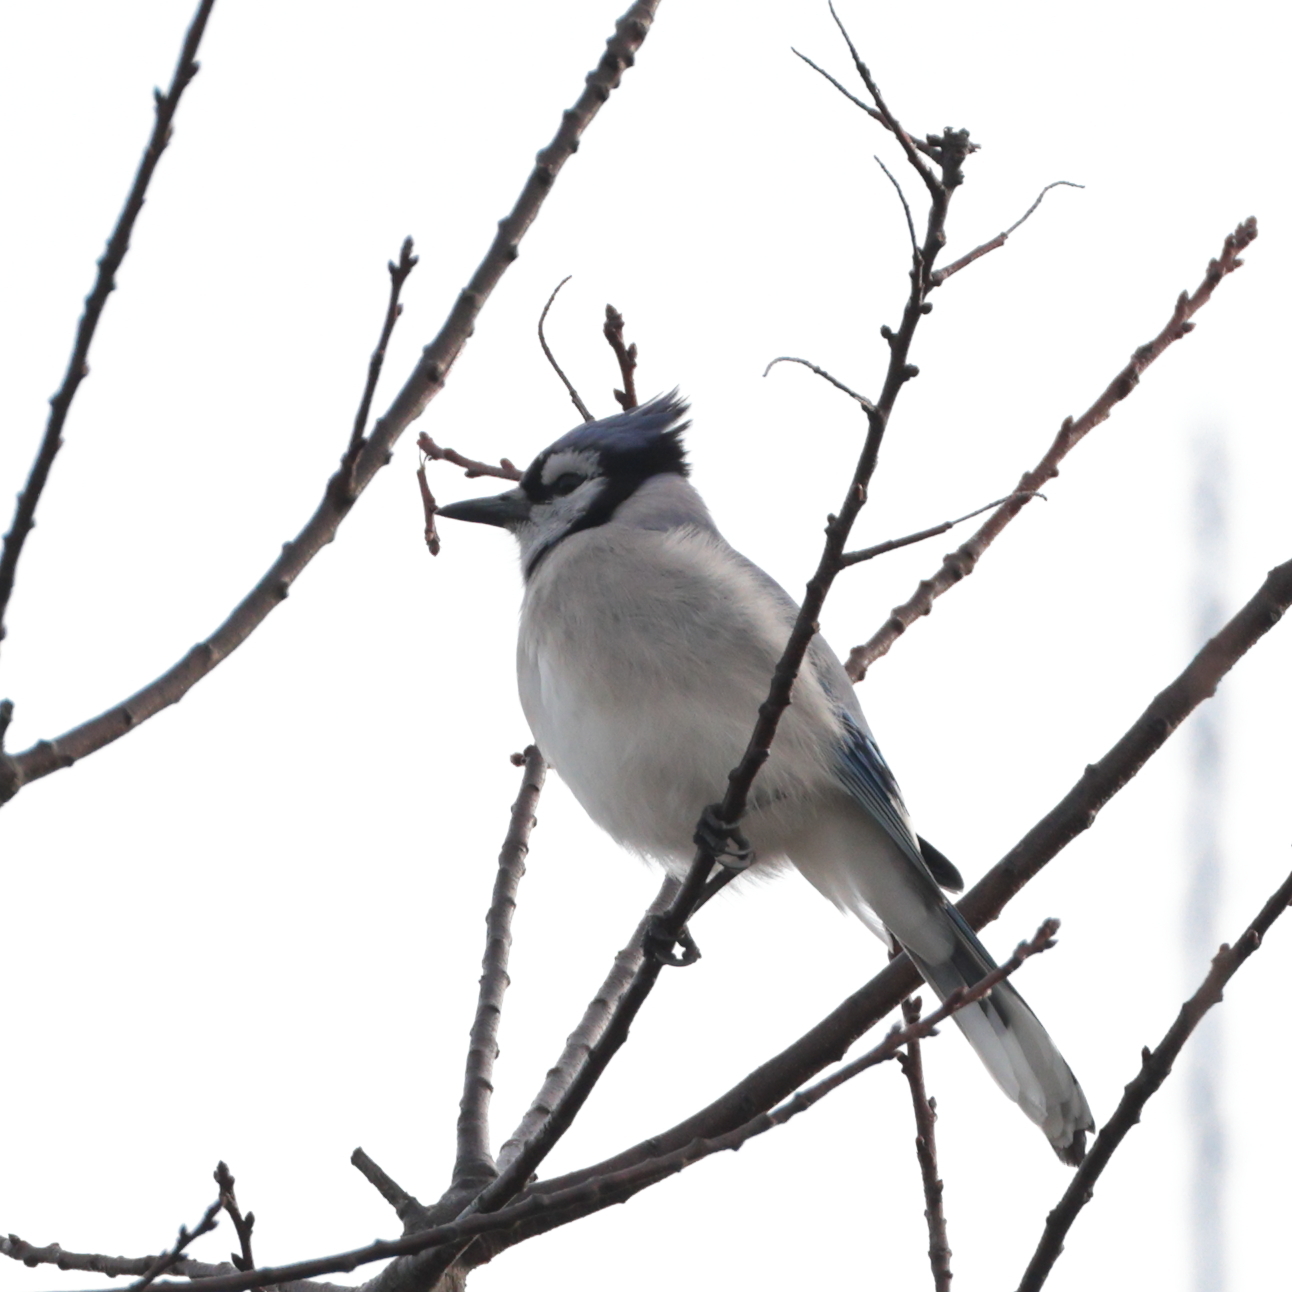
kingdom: Animalia
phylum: Chordata
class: Aves
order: Passeriformes
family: Corvidae
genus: Cyanocitta
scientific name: Cyanocitta cristata
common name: Blue jay
